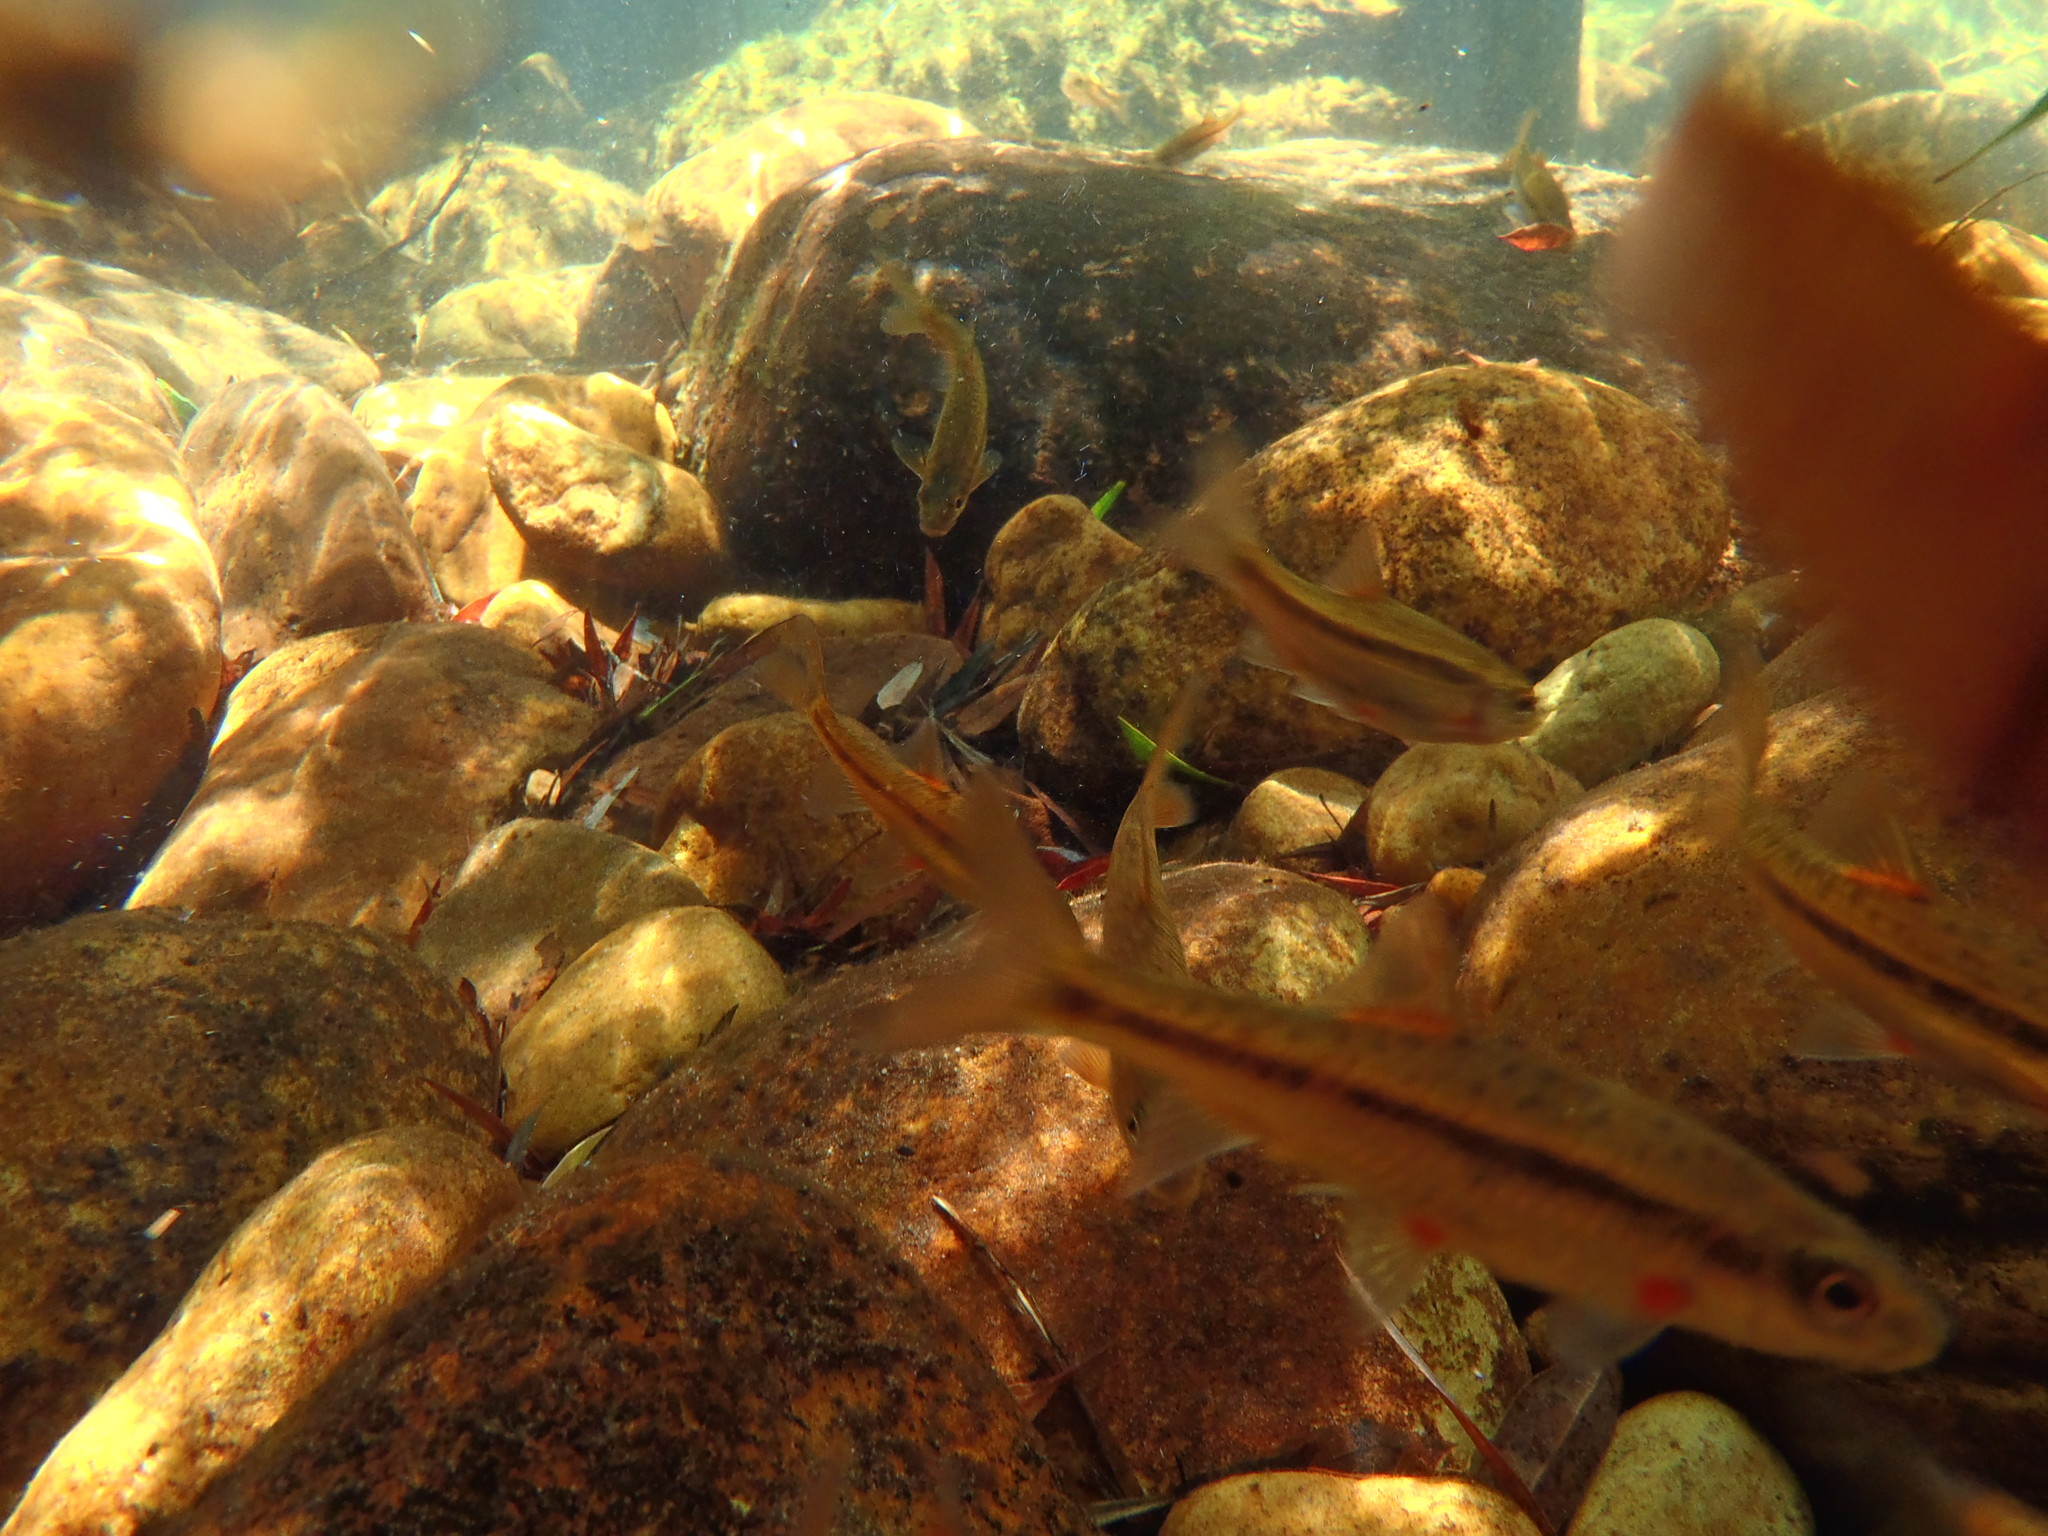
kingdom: Animalia
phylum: Chordata
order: Cypriniformes
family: Cyprinidae
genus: Pseudobarbus
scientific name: Pseudobarbus calidus
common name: Clanwilliam redfin
